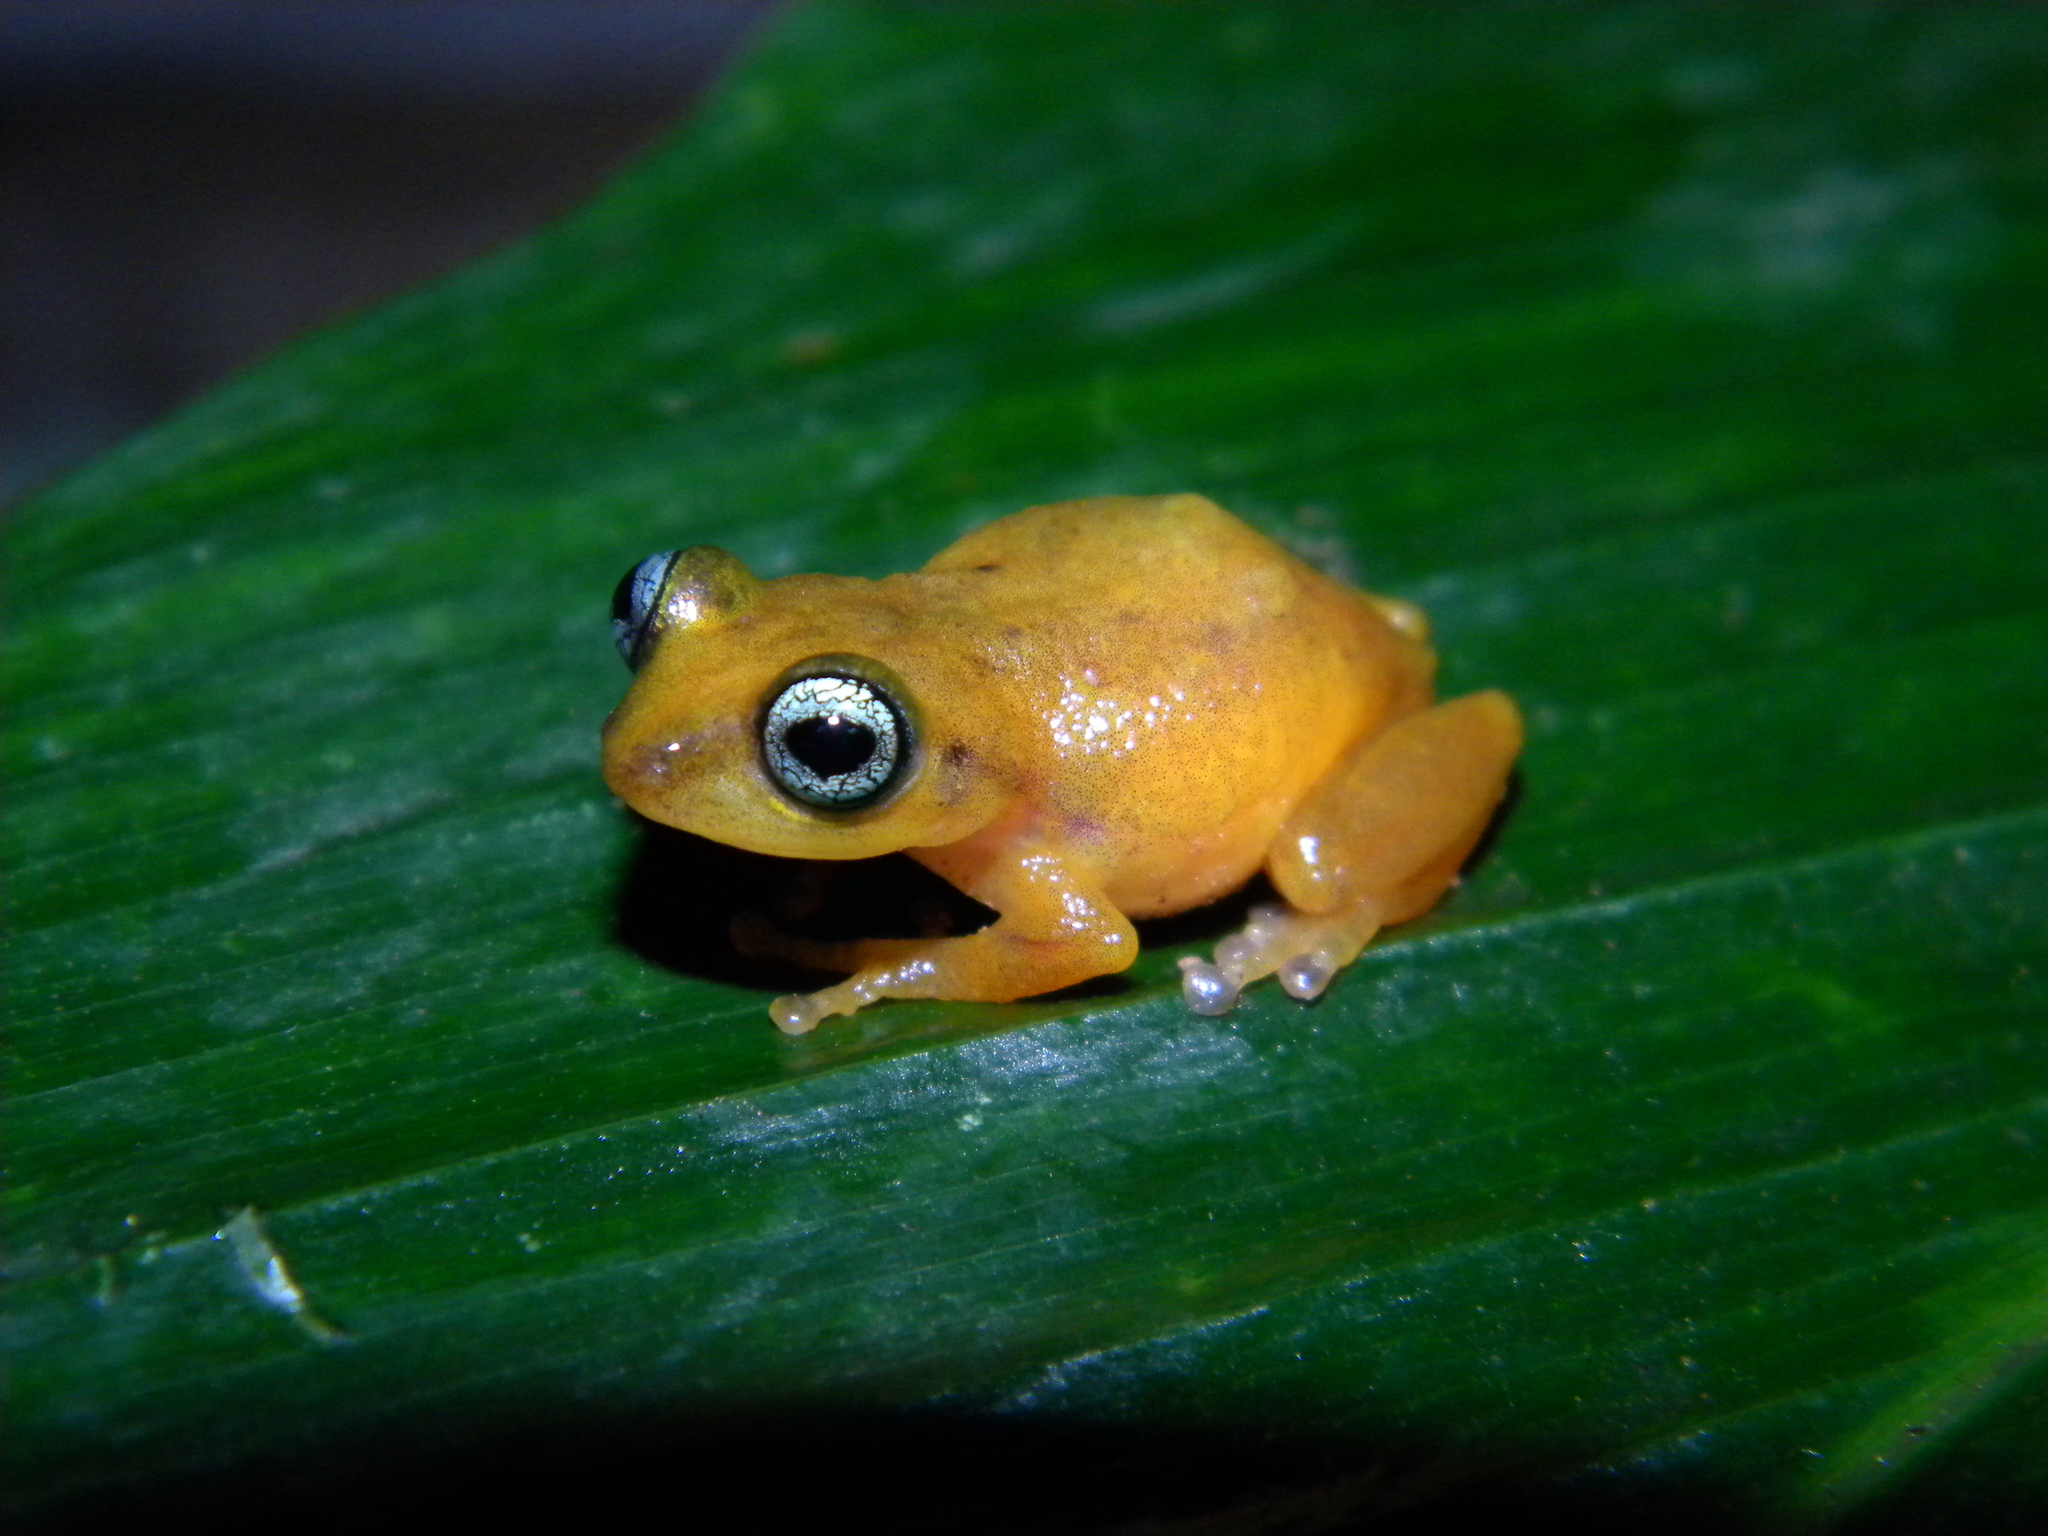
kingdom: Animalia
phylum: Chordata
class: Amphibia
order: Anura
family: Rhacophoridae
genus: Raorchestes
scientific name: Raorchestes uthamani
